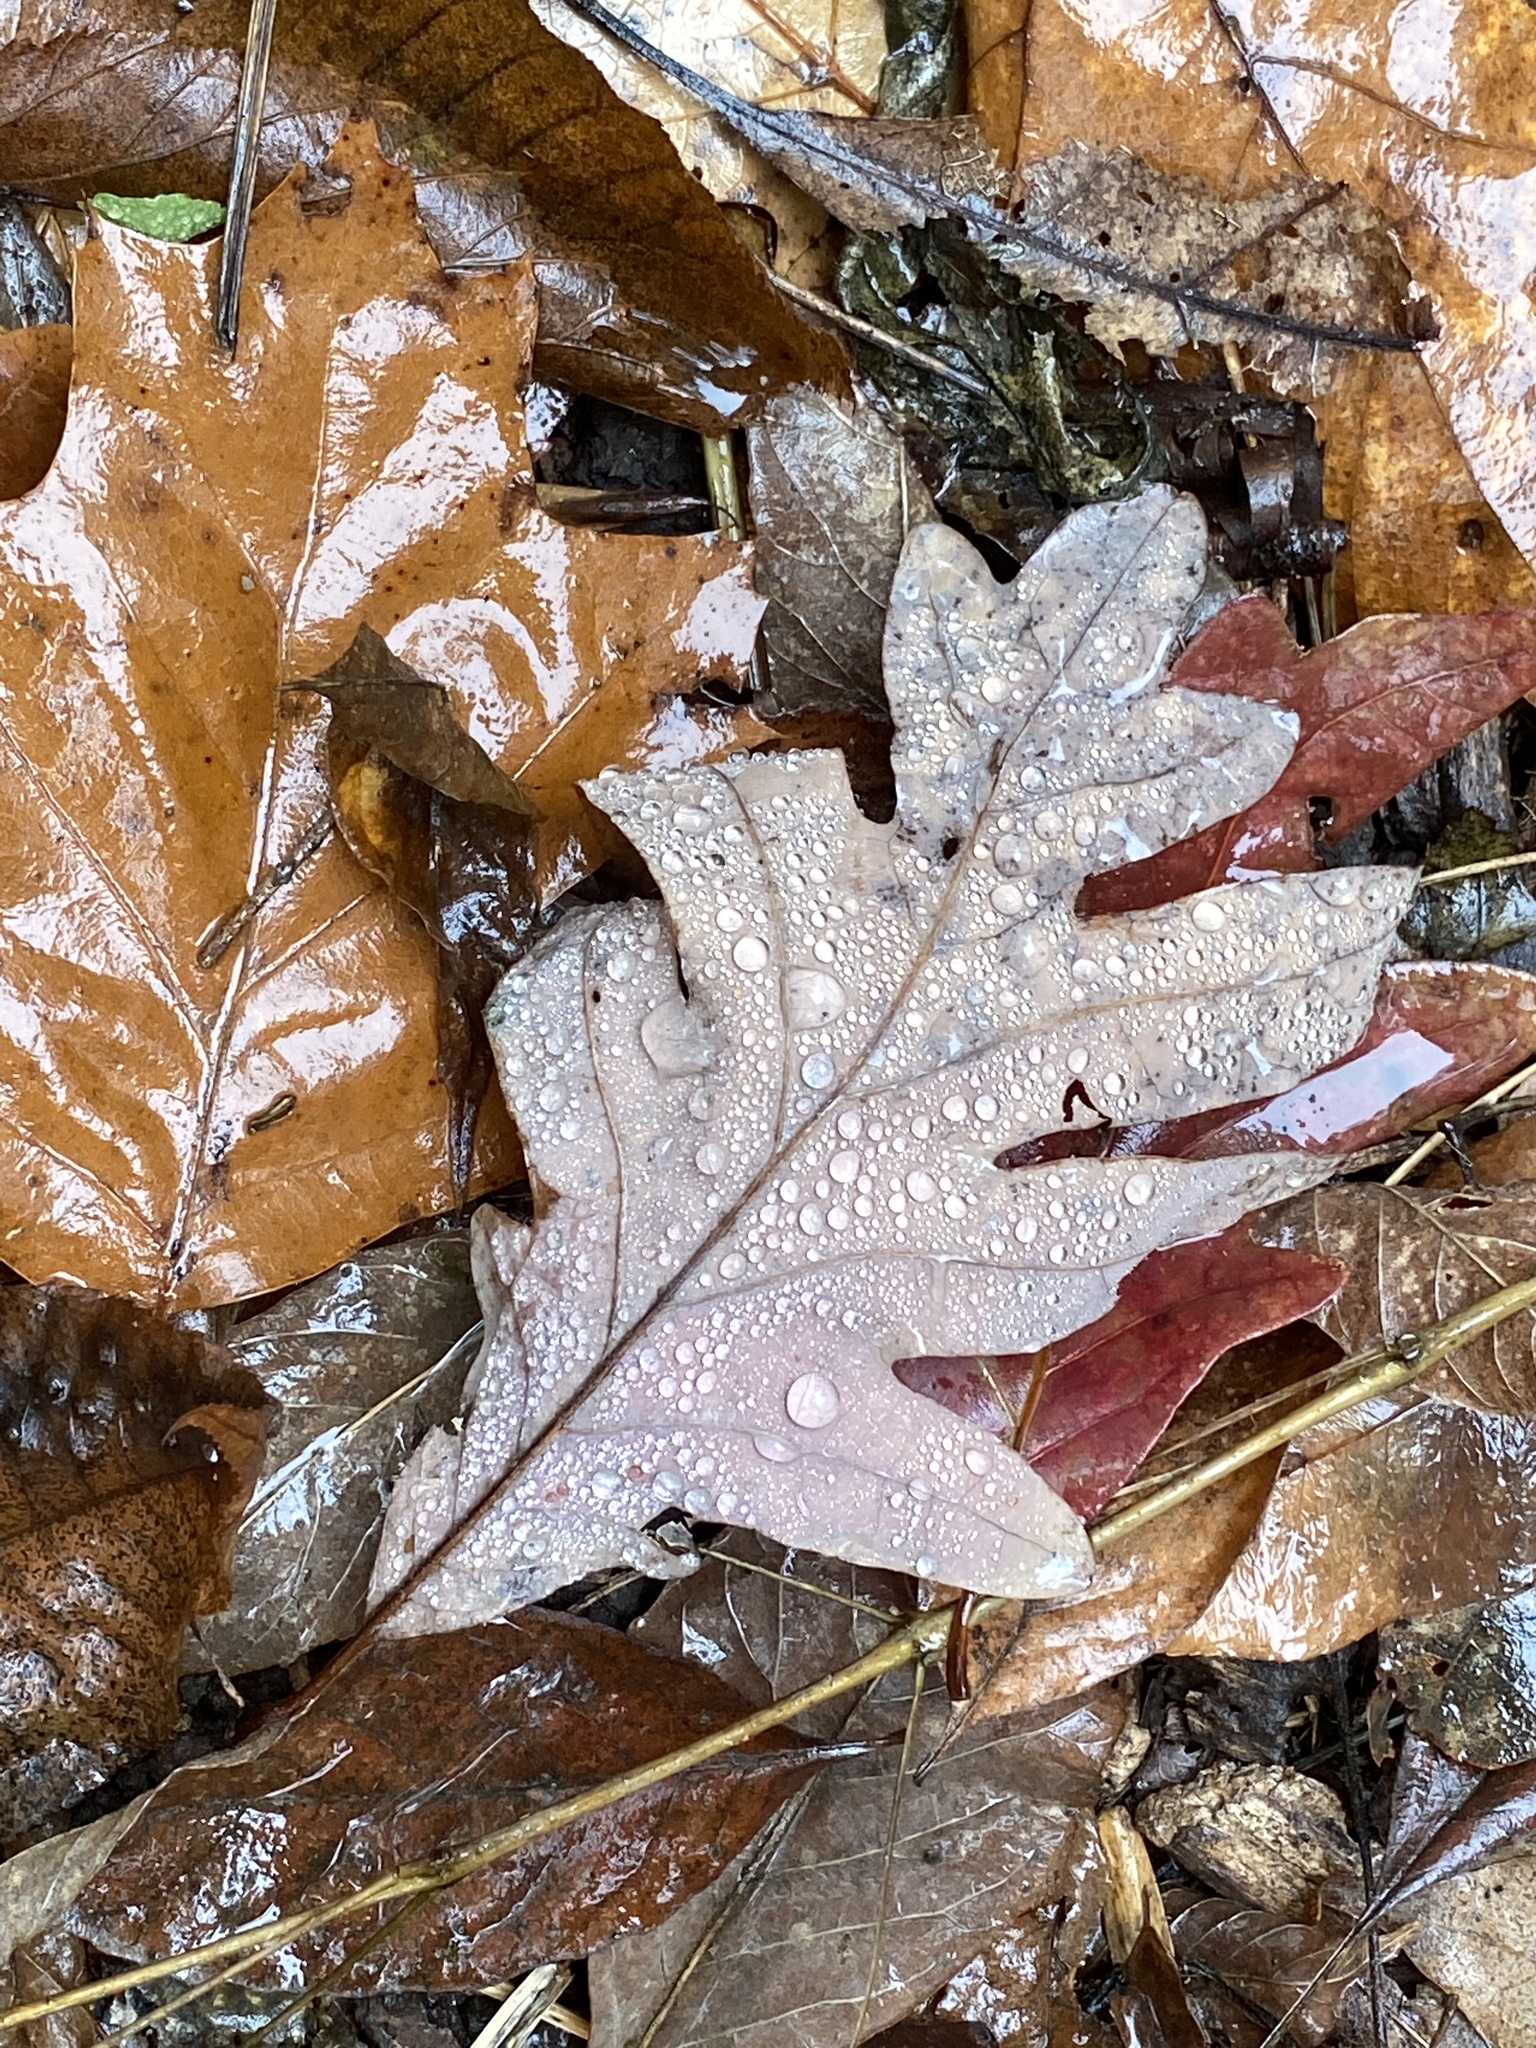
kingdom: Plantae
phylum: Tracheophyta
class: Magnoliopsida
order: Fagales
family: Fagaceae
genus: Quercus
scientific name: Quercus alba
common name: White oak
